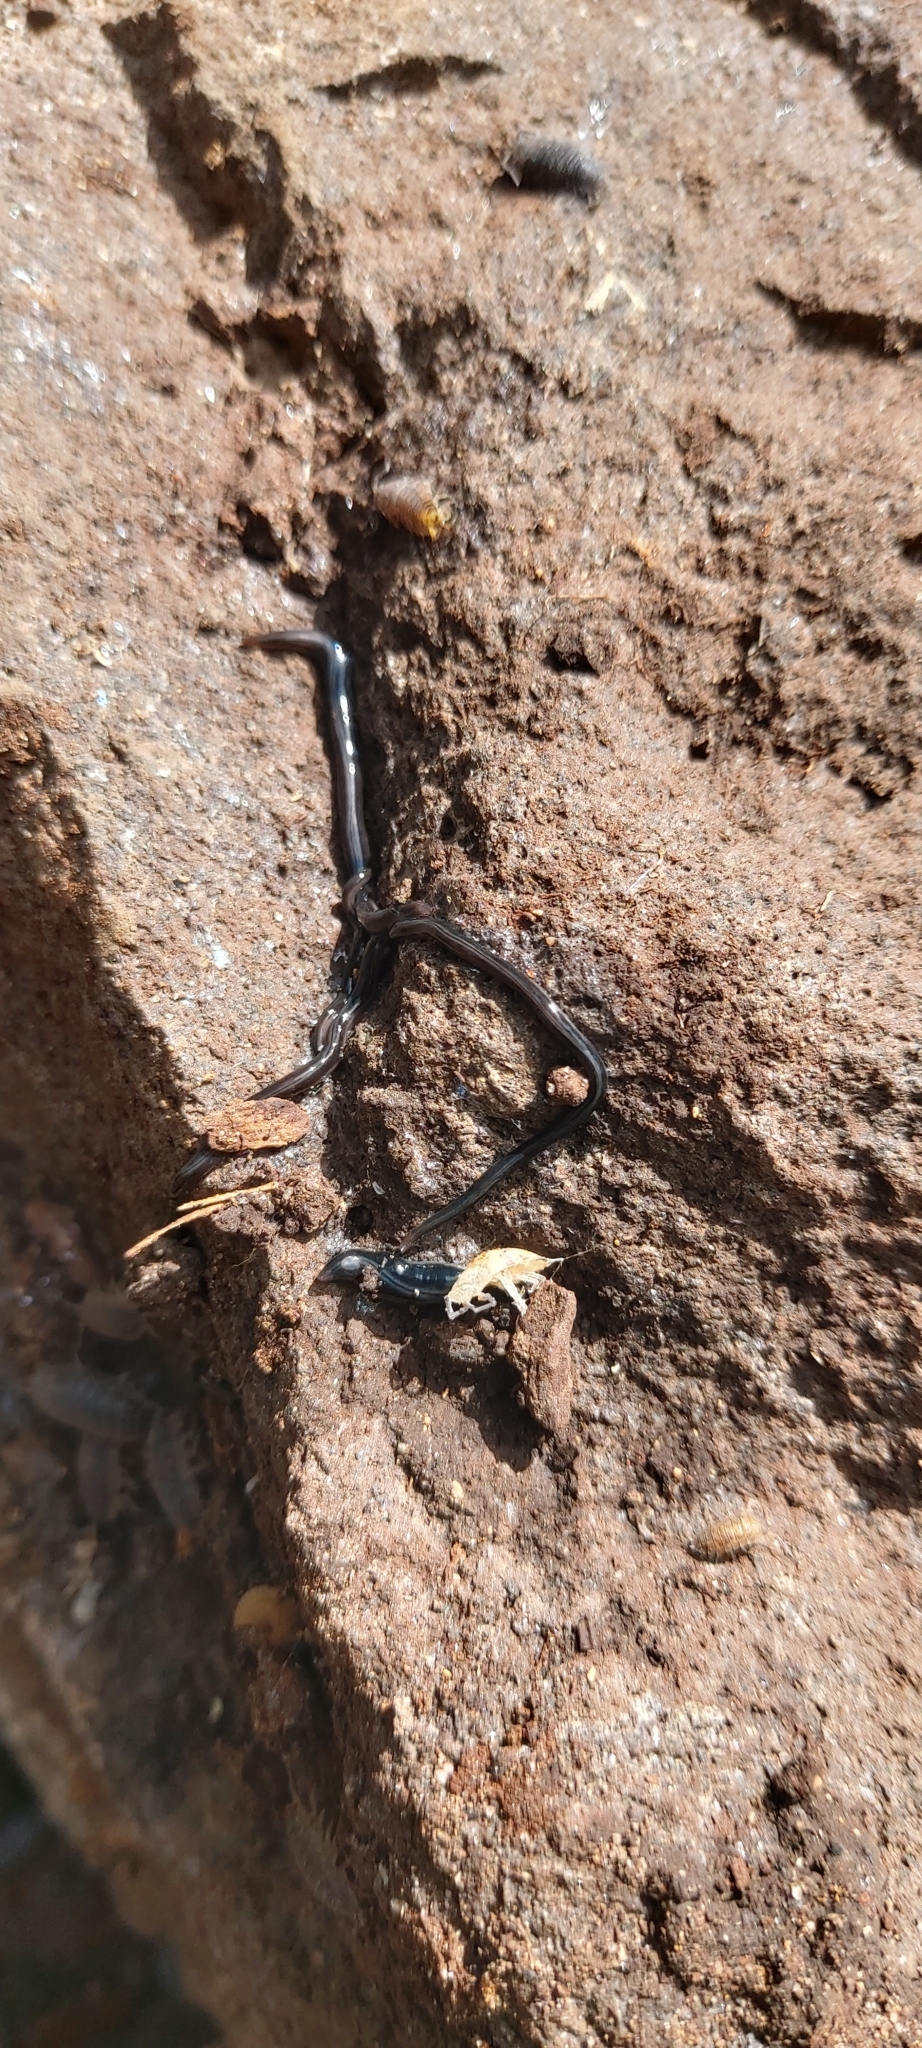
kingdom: Animalia
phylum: Platyhelminthes
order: Tricladida
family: Geoplanidae
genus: Parakontikia
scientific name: Parakontikia ventrolineata
